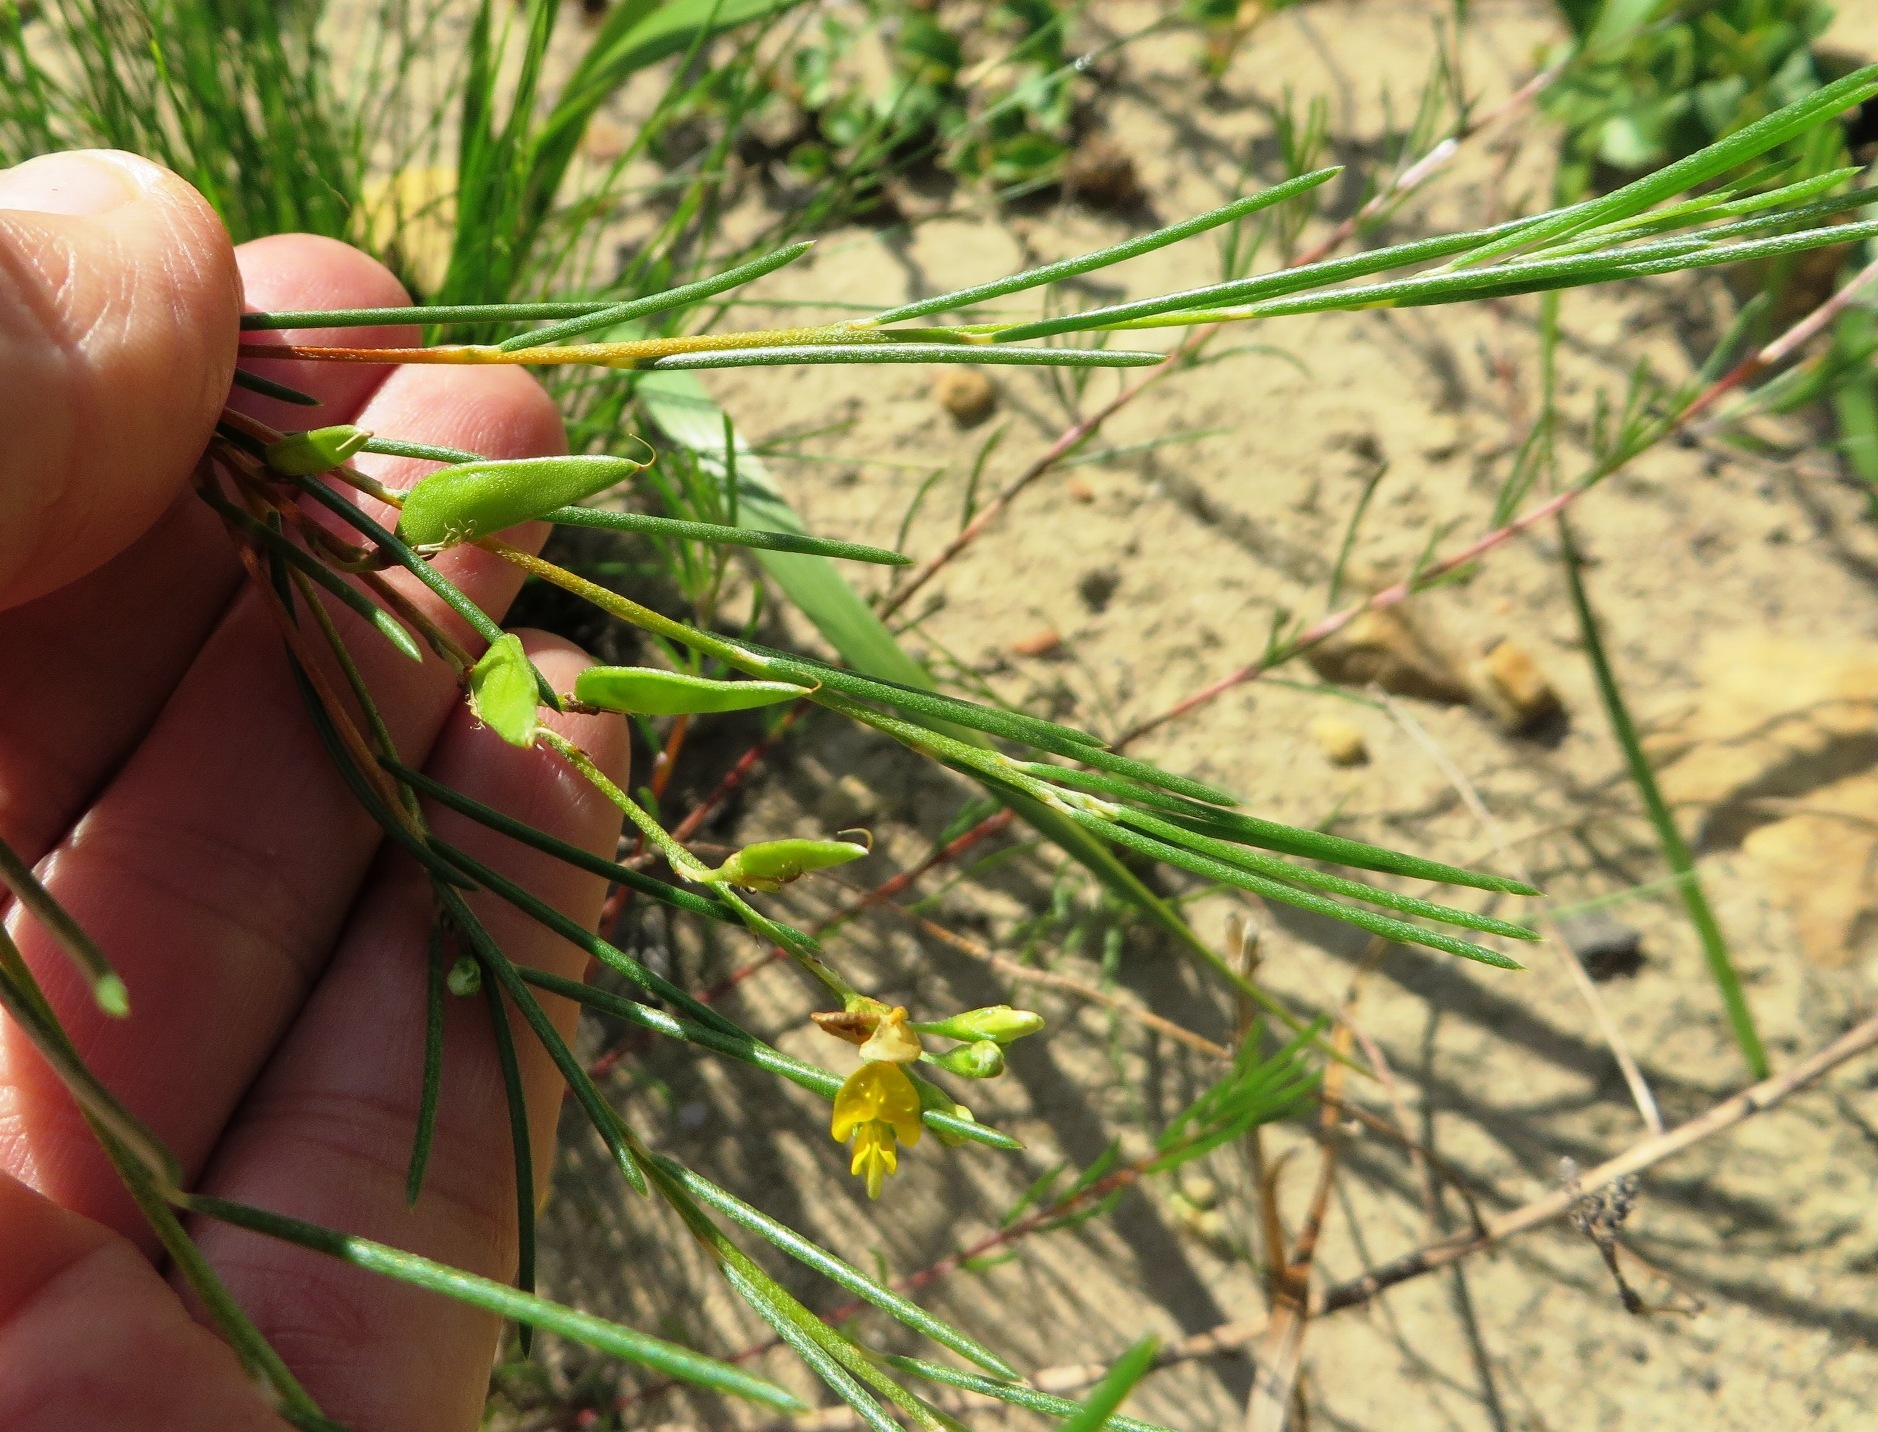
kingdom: Plantae
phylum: Tracheophyta
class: Magnoliopsida
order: Fabales
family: Fabaceae
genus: Aspalathus
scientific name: Aspalathus linearis
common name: Rooibos-tea
